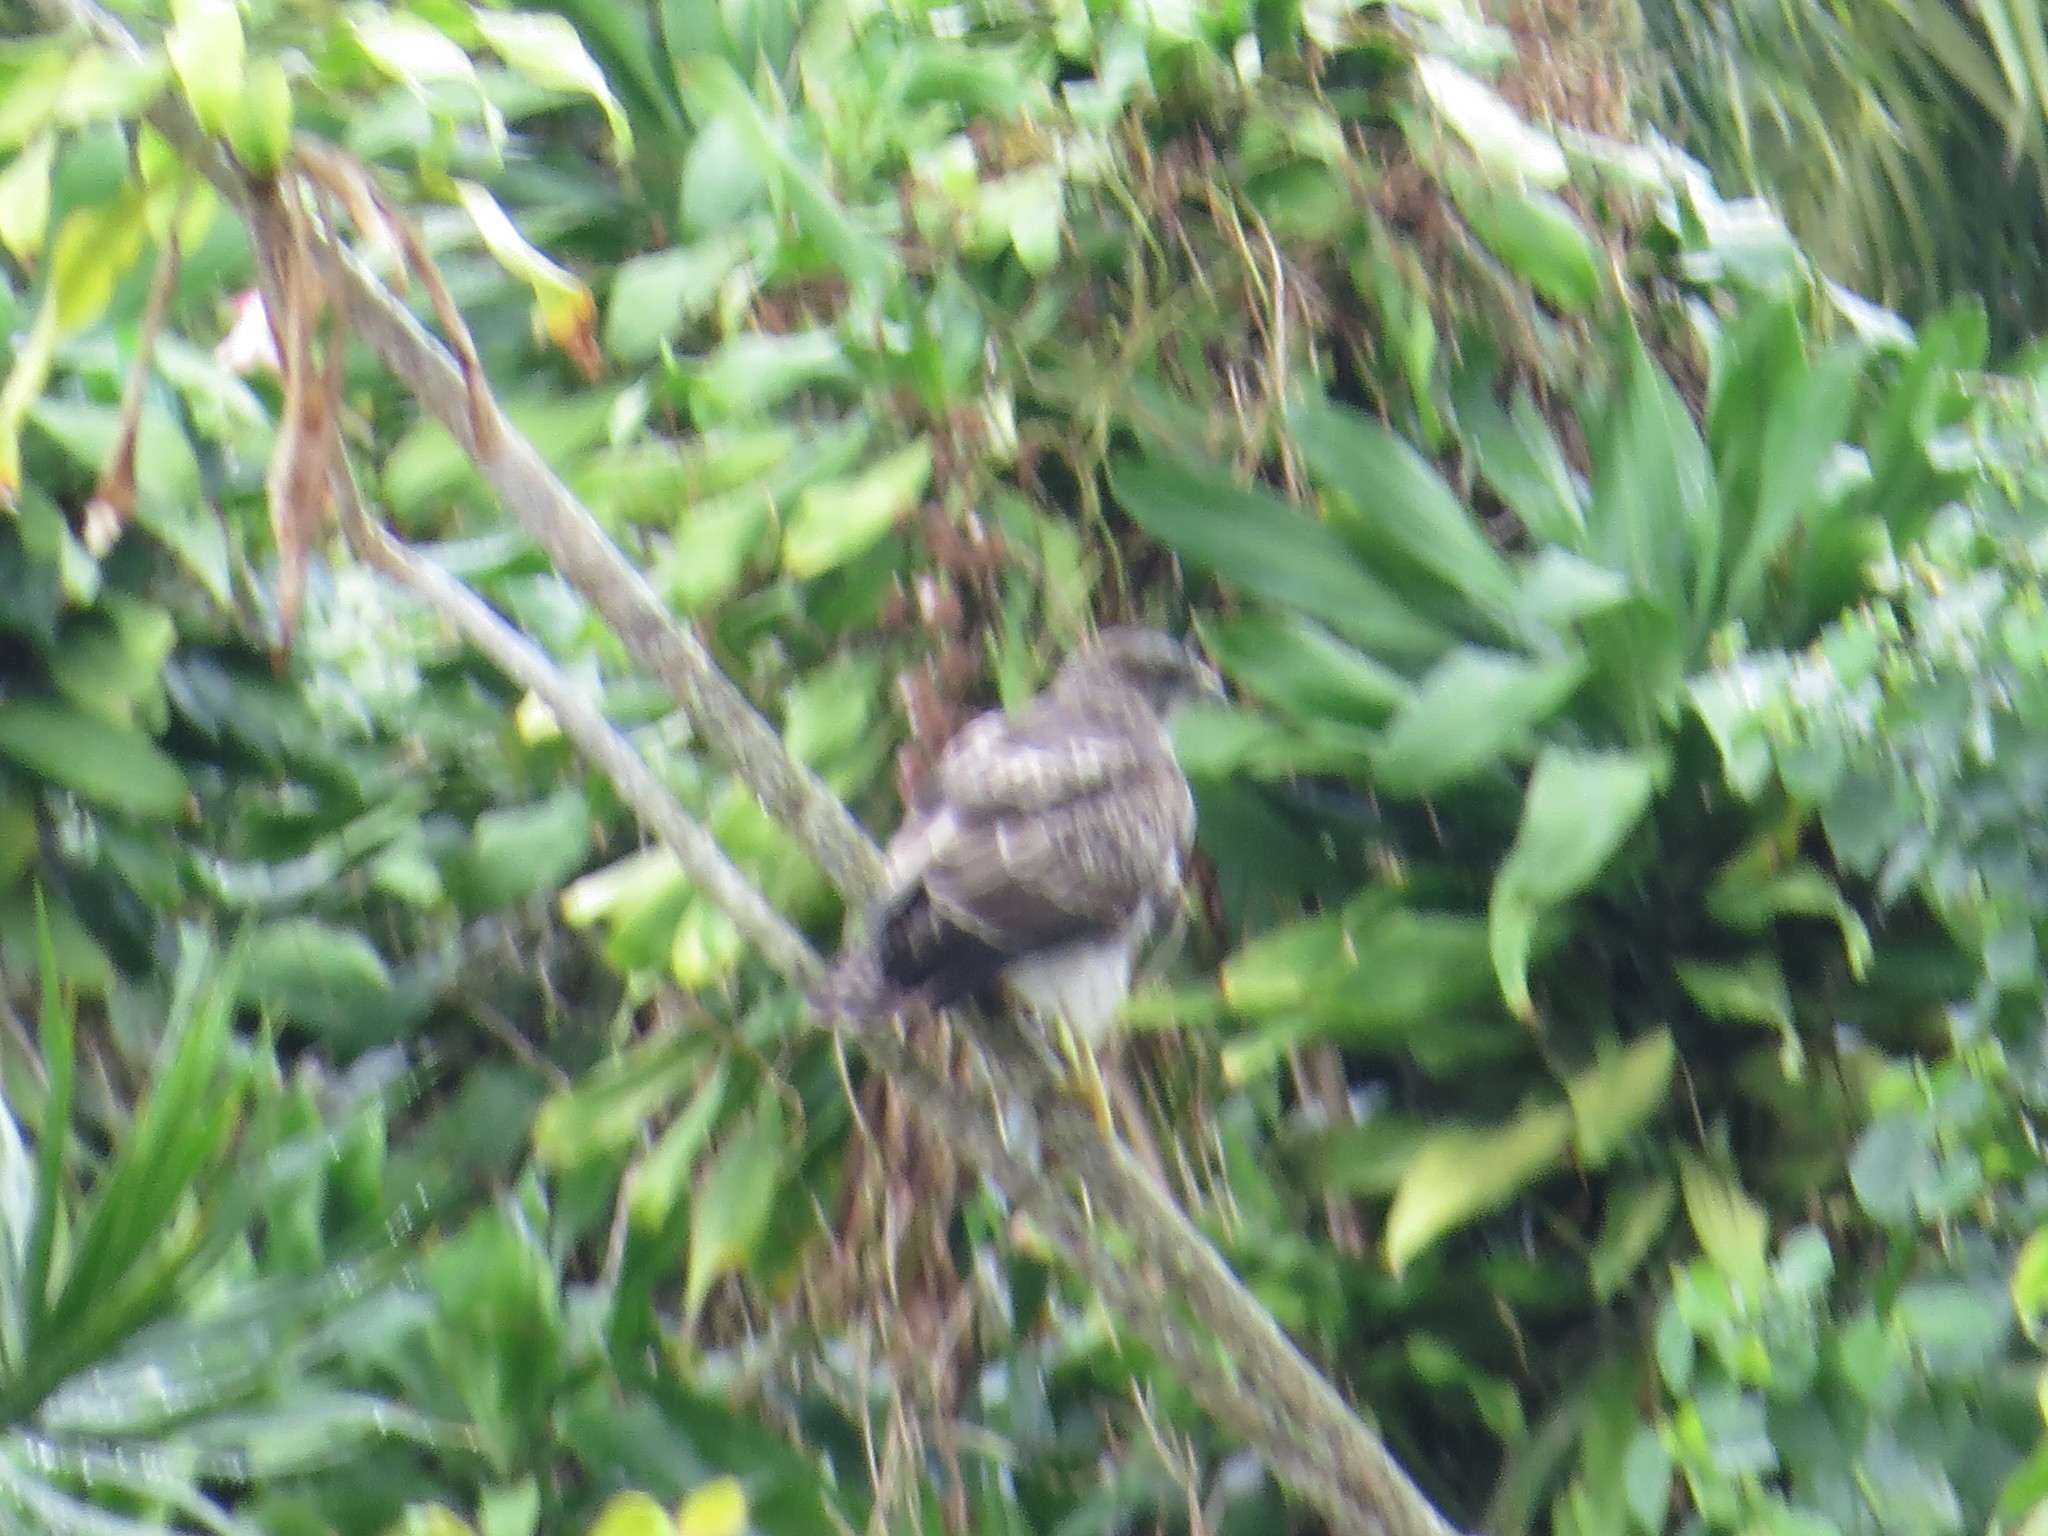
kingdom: Animalia
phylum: Chordata
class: Aves
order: Accipitriformes
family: Accipitridae
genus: Buteo
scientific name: Buteo solitarius
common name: Hawaiian hawk
